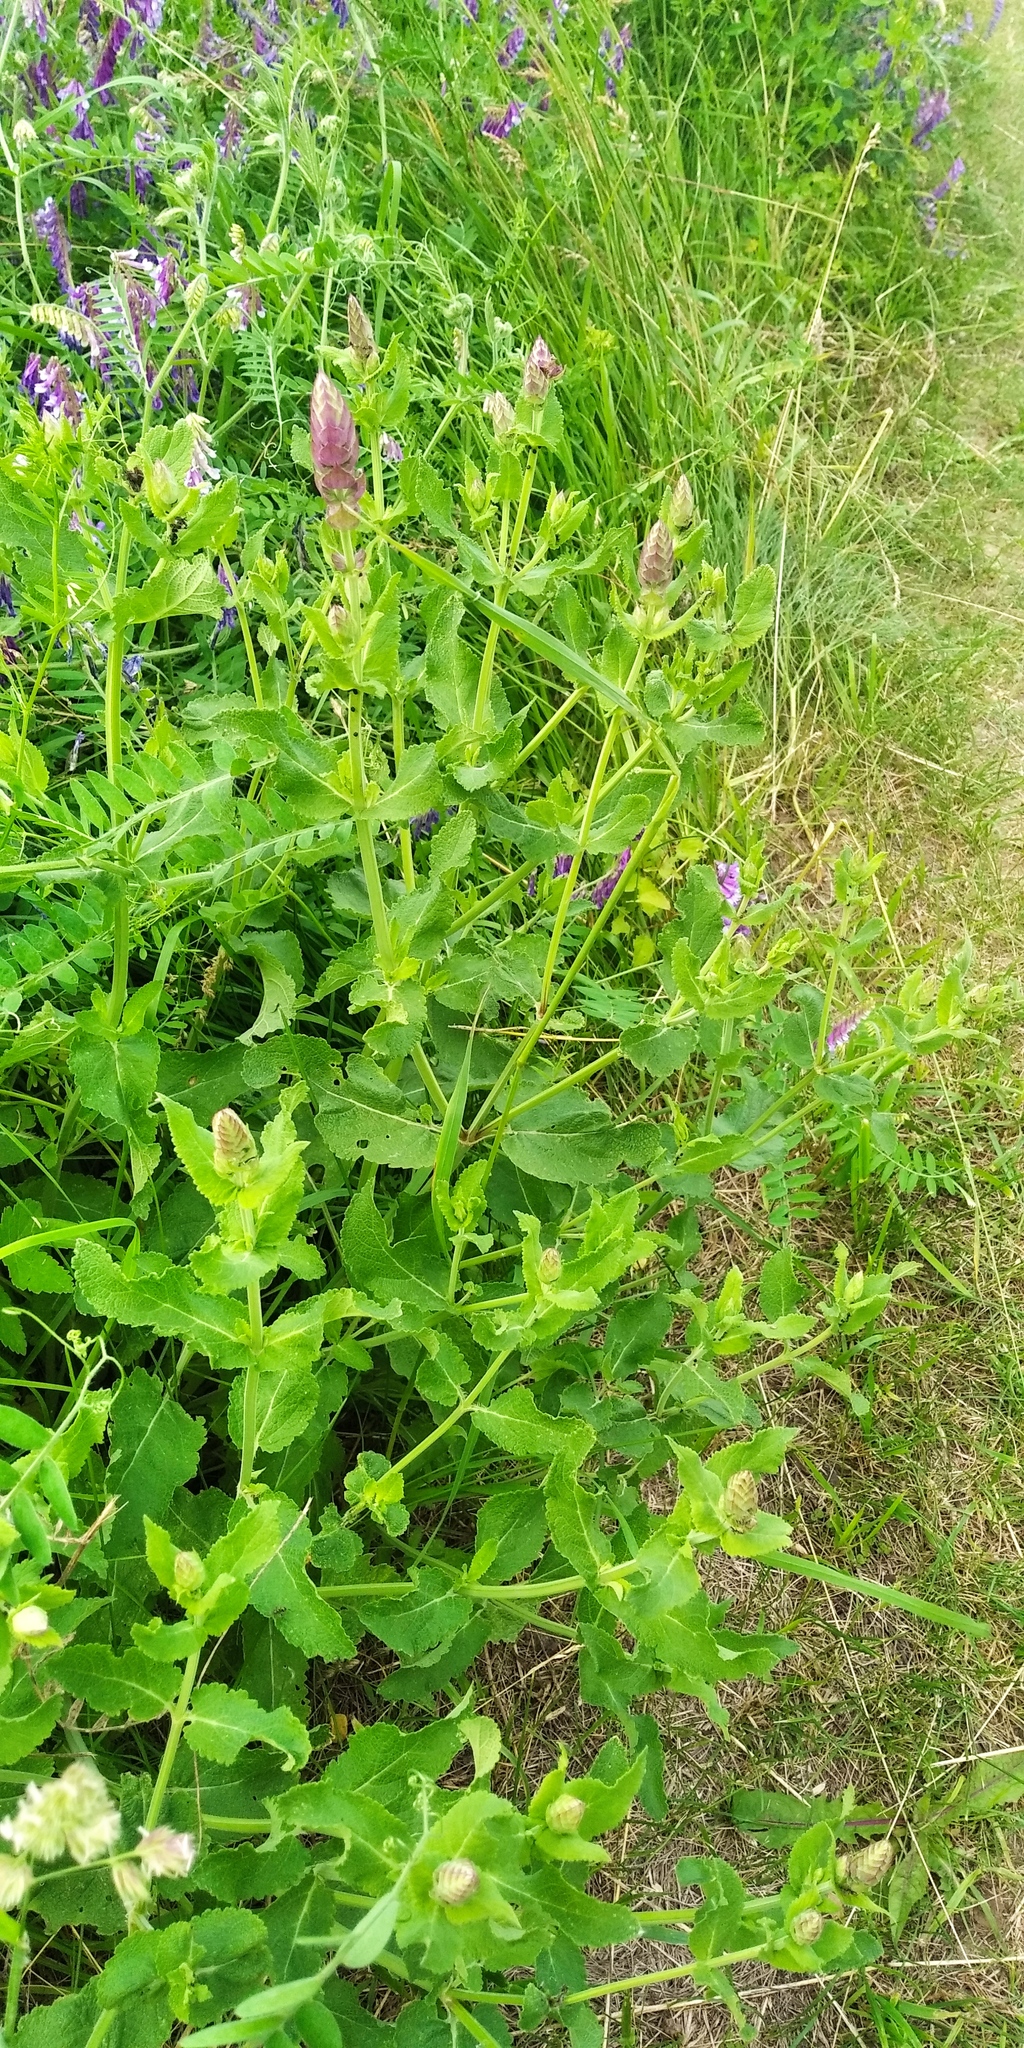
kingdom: Plantae
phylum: Tracheophyta
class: Magnoliopsida
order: Lamiales
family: Lamiaceae
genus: Salvia
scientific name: Salvia nemorosa
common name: Balkan clary
